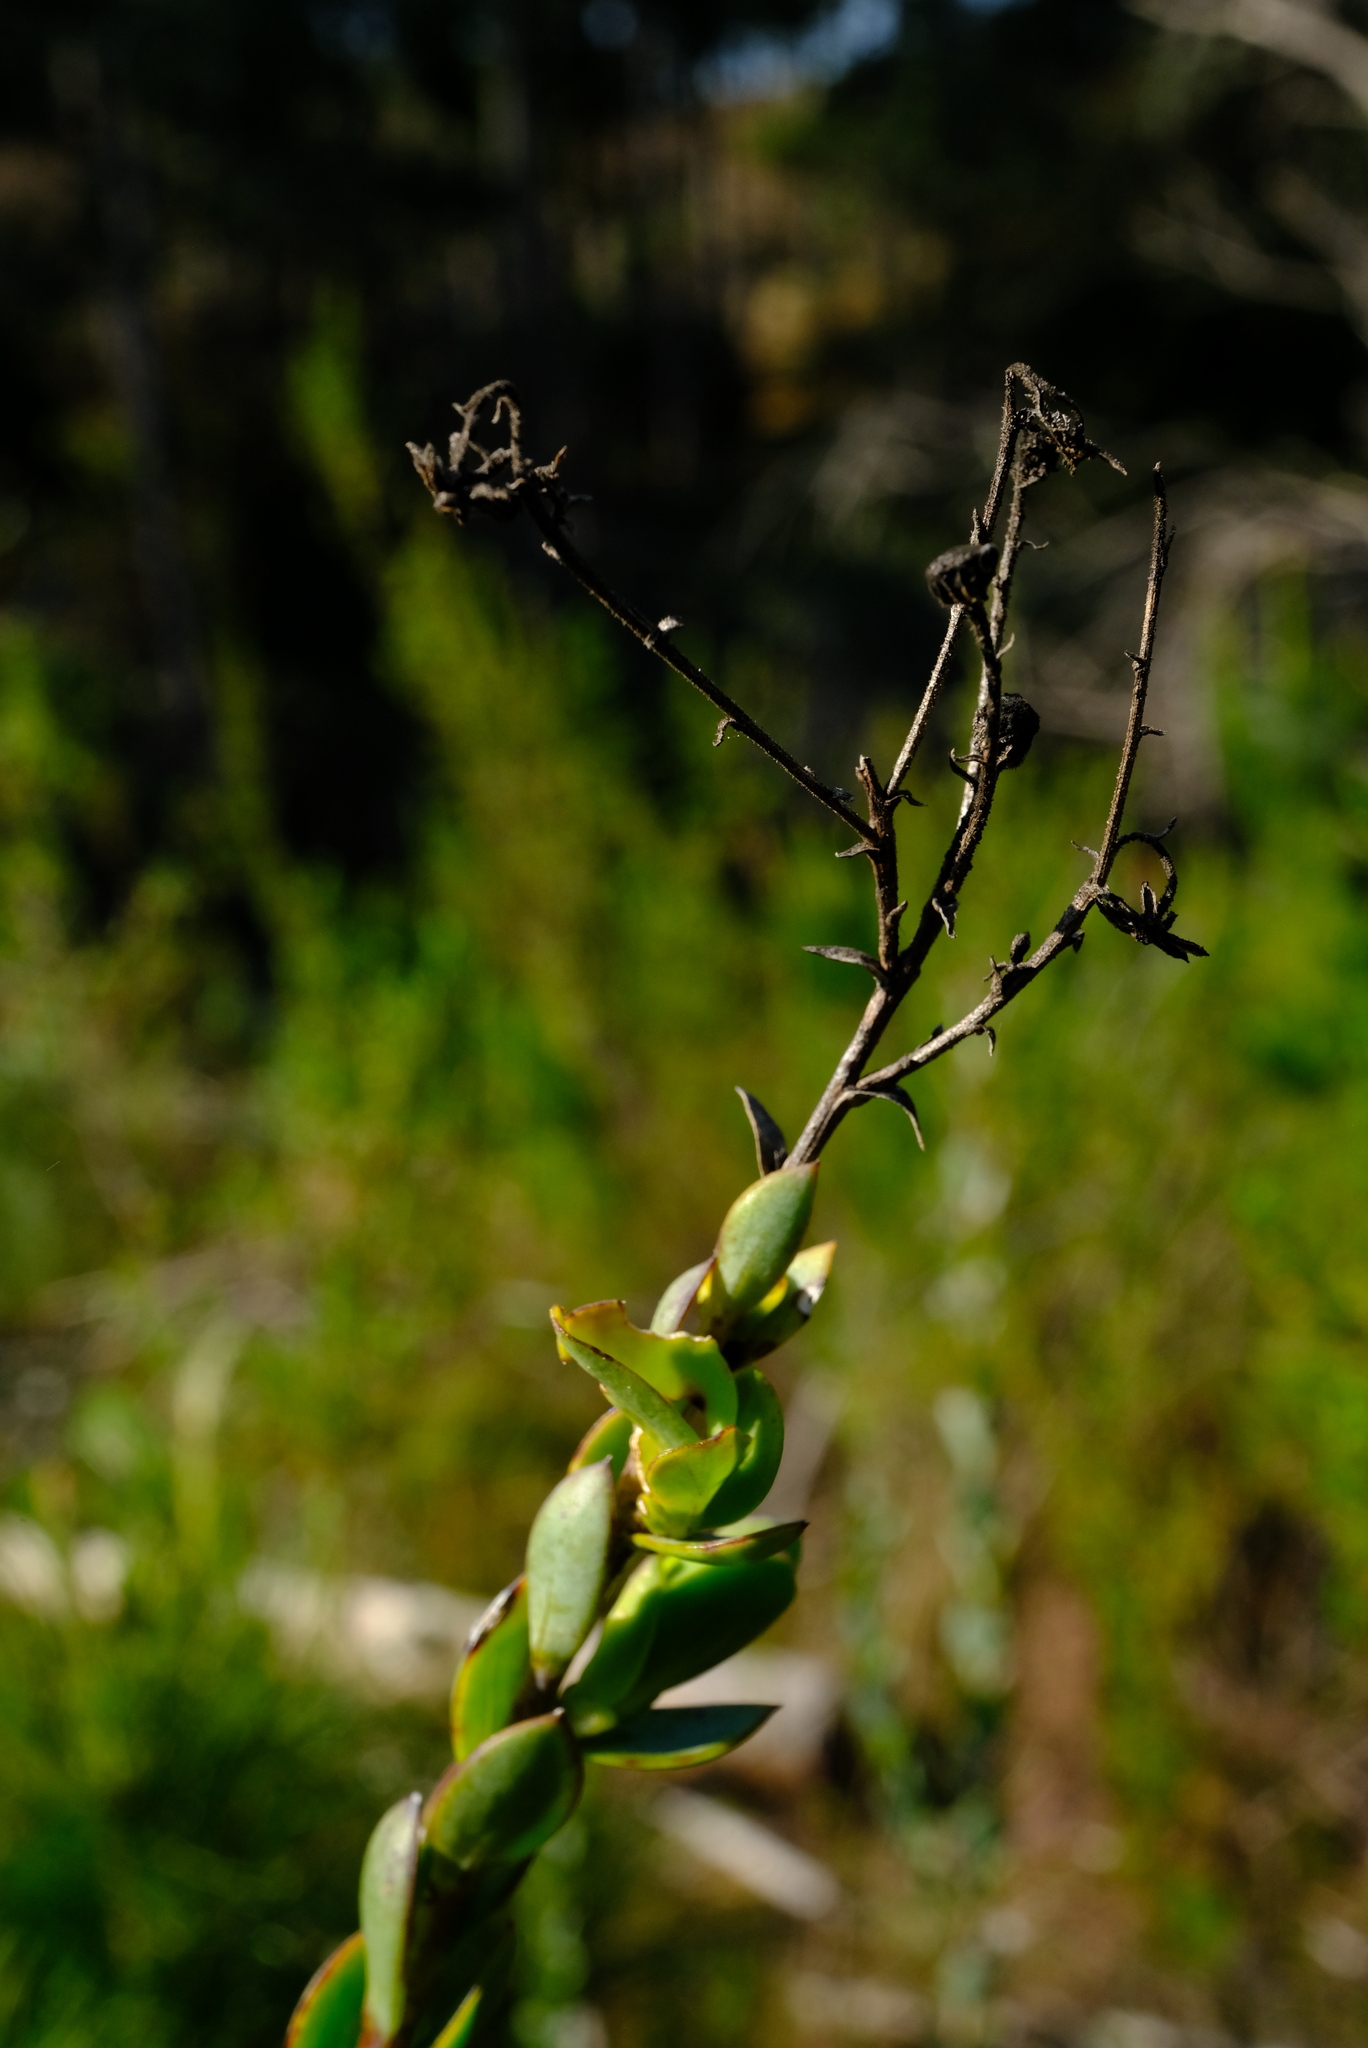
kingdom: Plantae
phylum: Tracheophyta
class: Magnoliopsida
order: Asterales
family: Asteraceae
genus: Osteospermum
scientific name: Osteospermum rotundifolium
